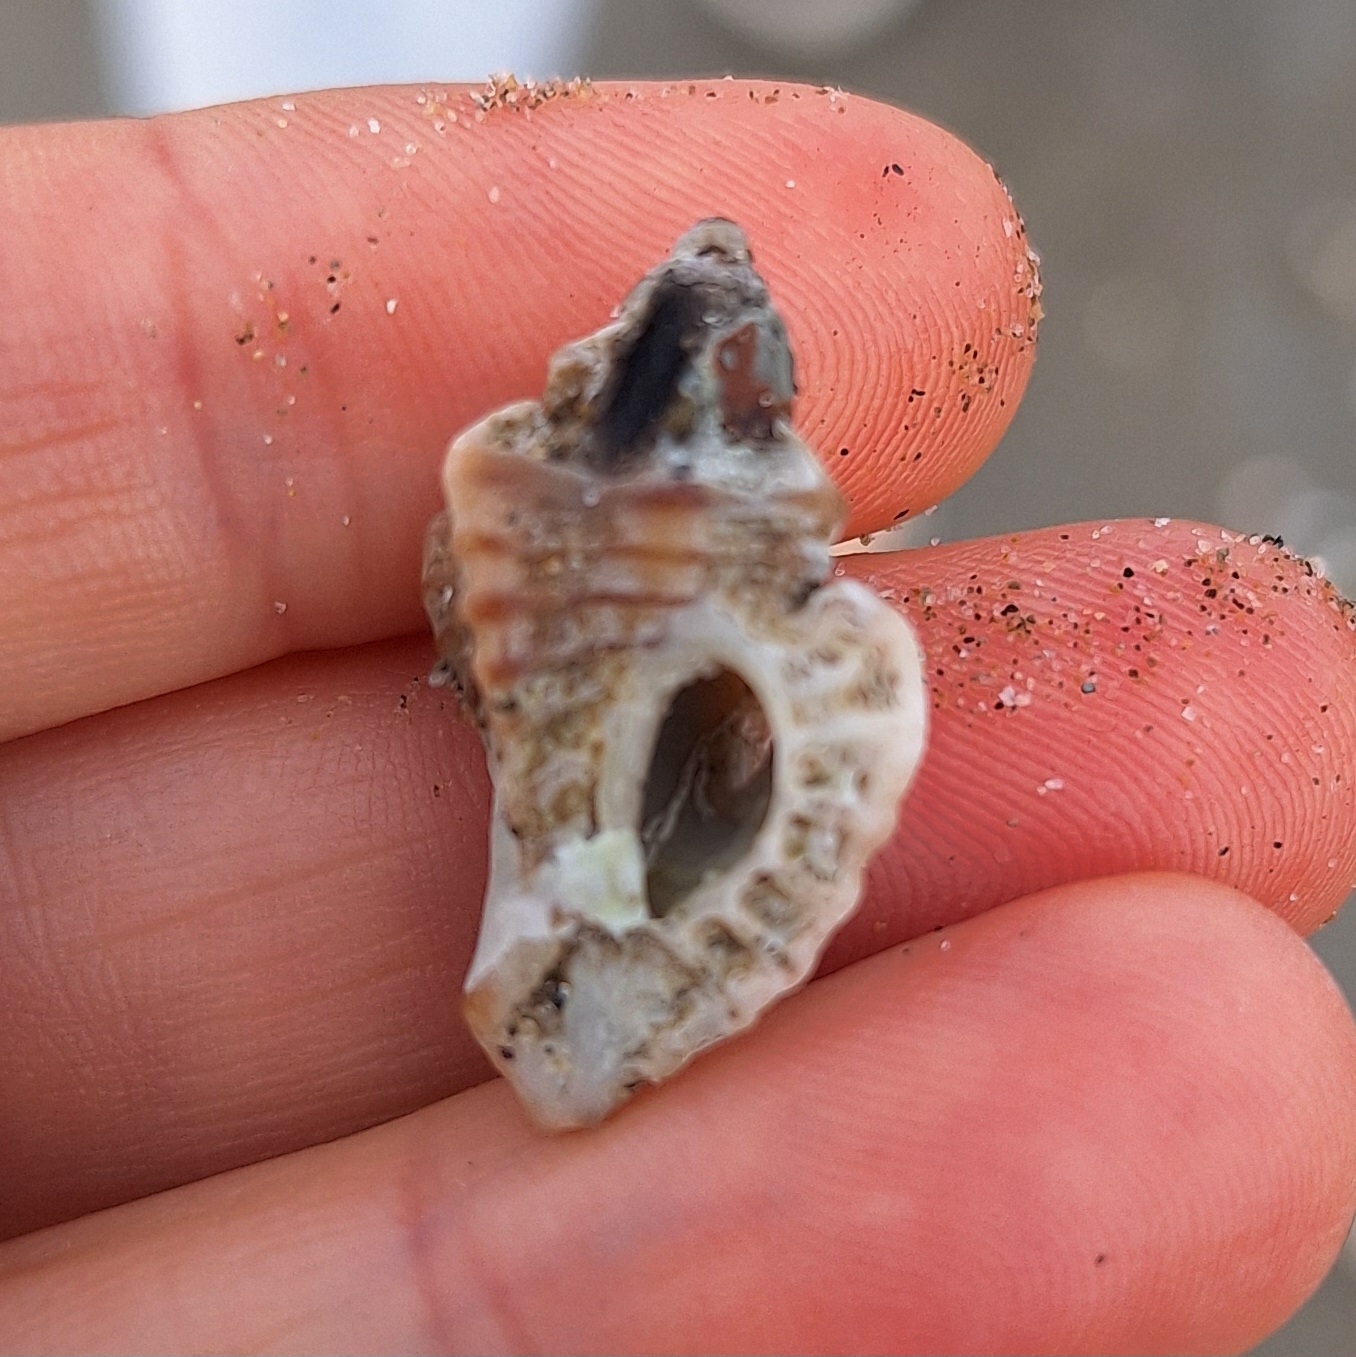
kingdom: Animalia
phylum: Mollusca
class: Gastropoda
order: Neogastropoda
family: Muricidae
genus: Ocenebra
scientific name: Ocenebra erinaceus
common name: European sting winkle
